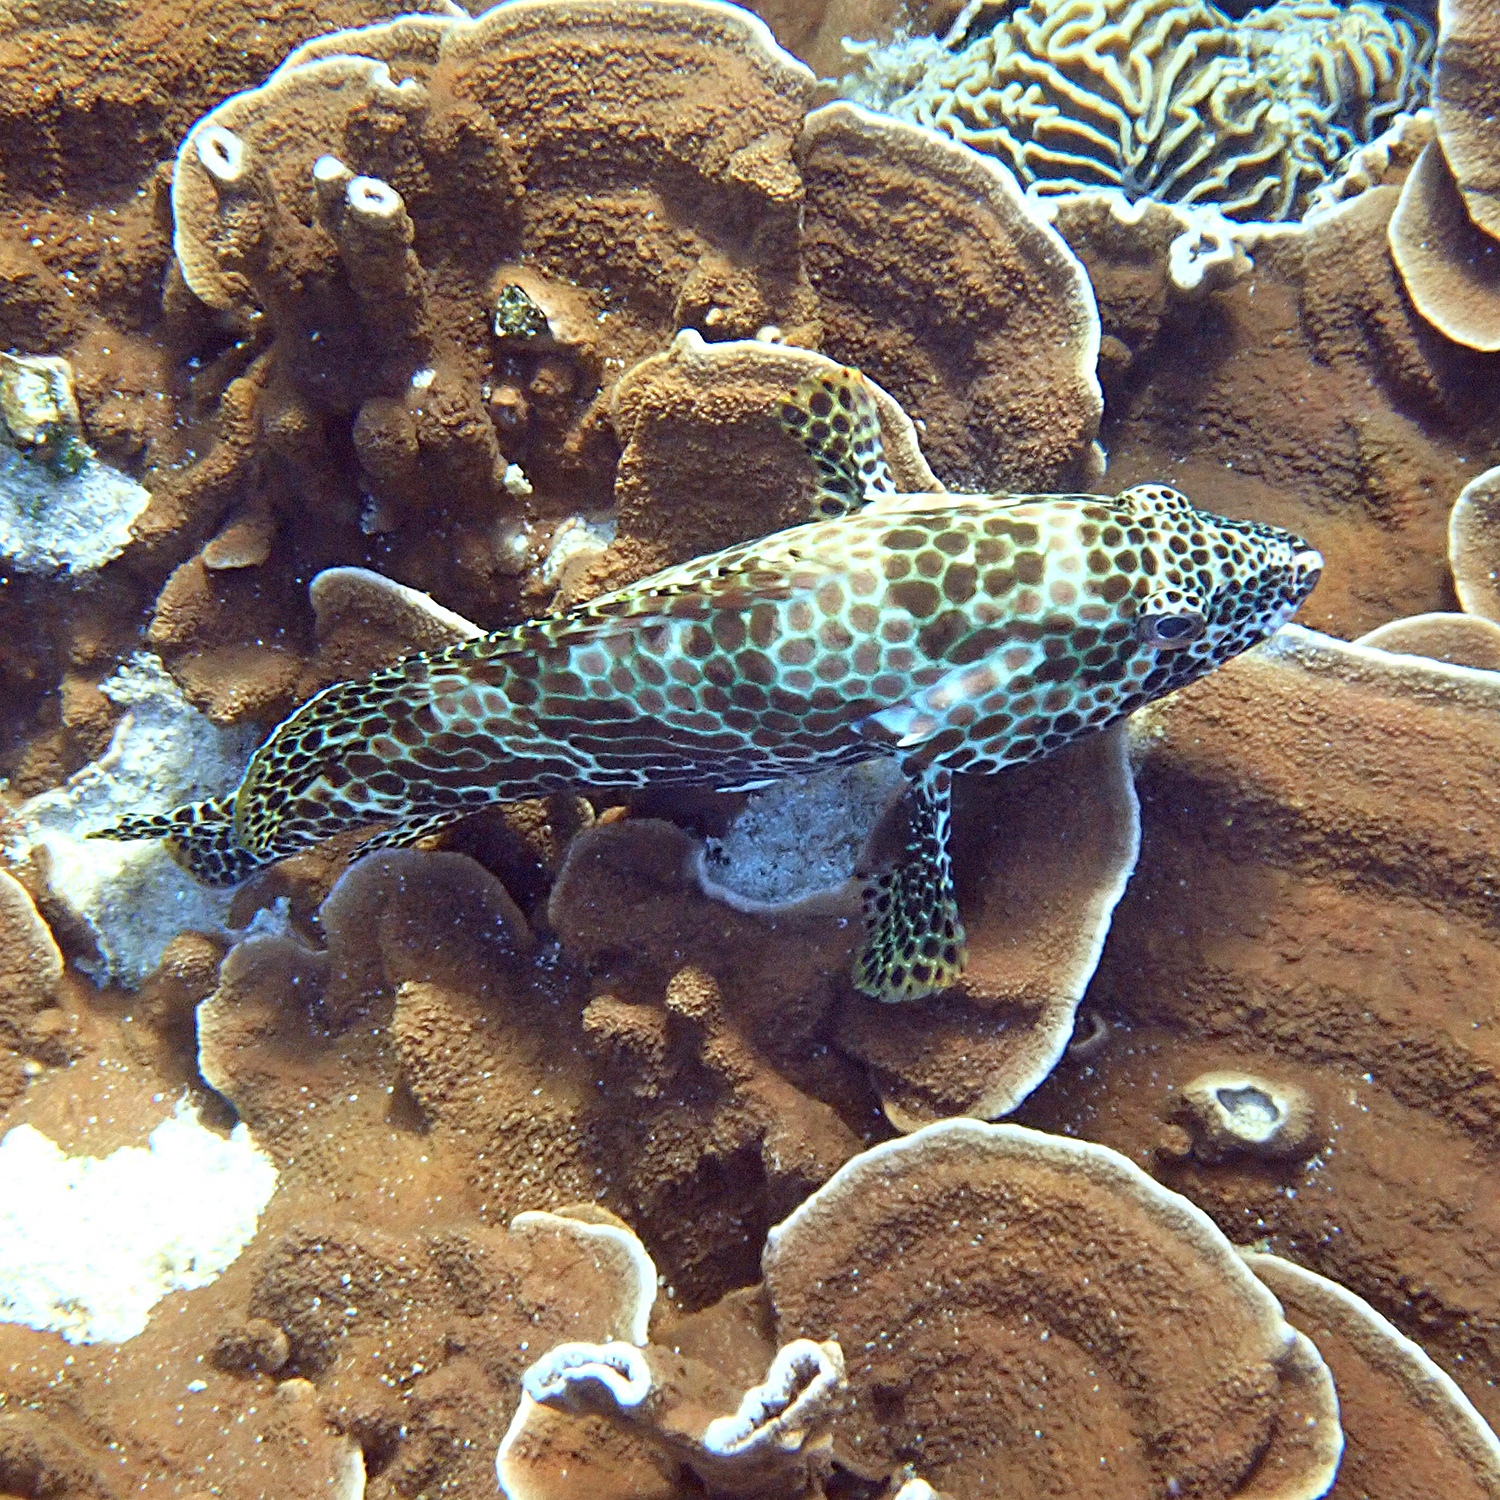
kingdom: Animalia
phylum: Chordata
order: Perciformes
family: Serranidae
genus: Epinephelus
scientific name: Epinephelus merra
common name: Honeycomb grouper
